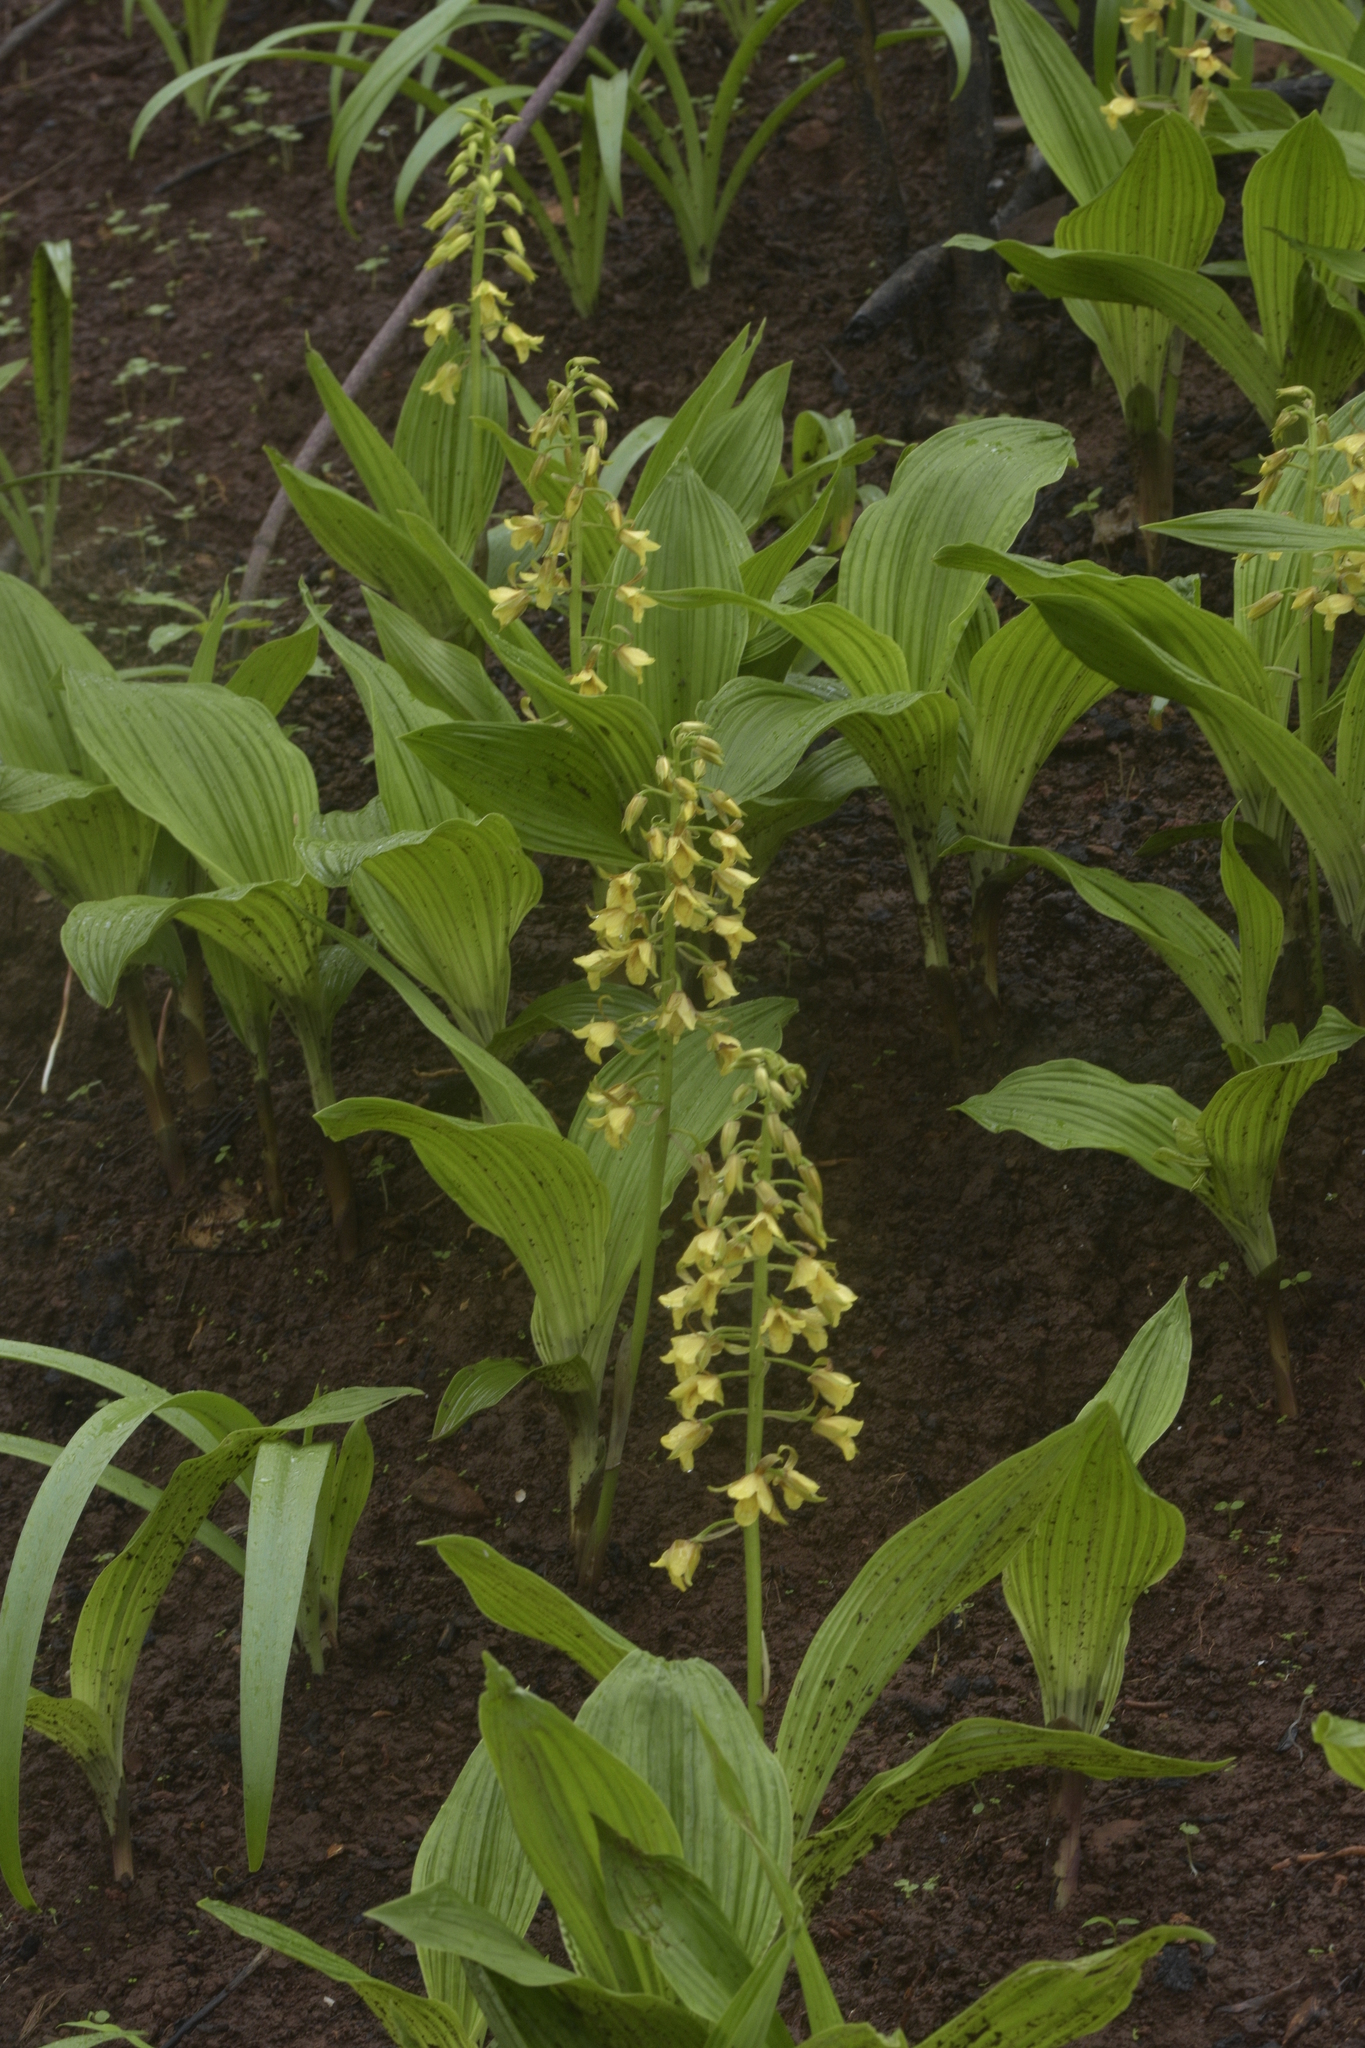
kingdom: Plantae
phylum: Tracheophyta
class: Liliopsida
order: Asparagales
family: Orchidaceae
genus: Eulophia
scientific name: Eulophia ochreata
